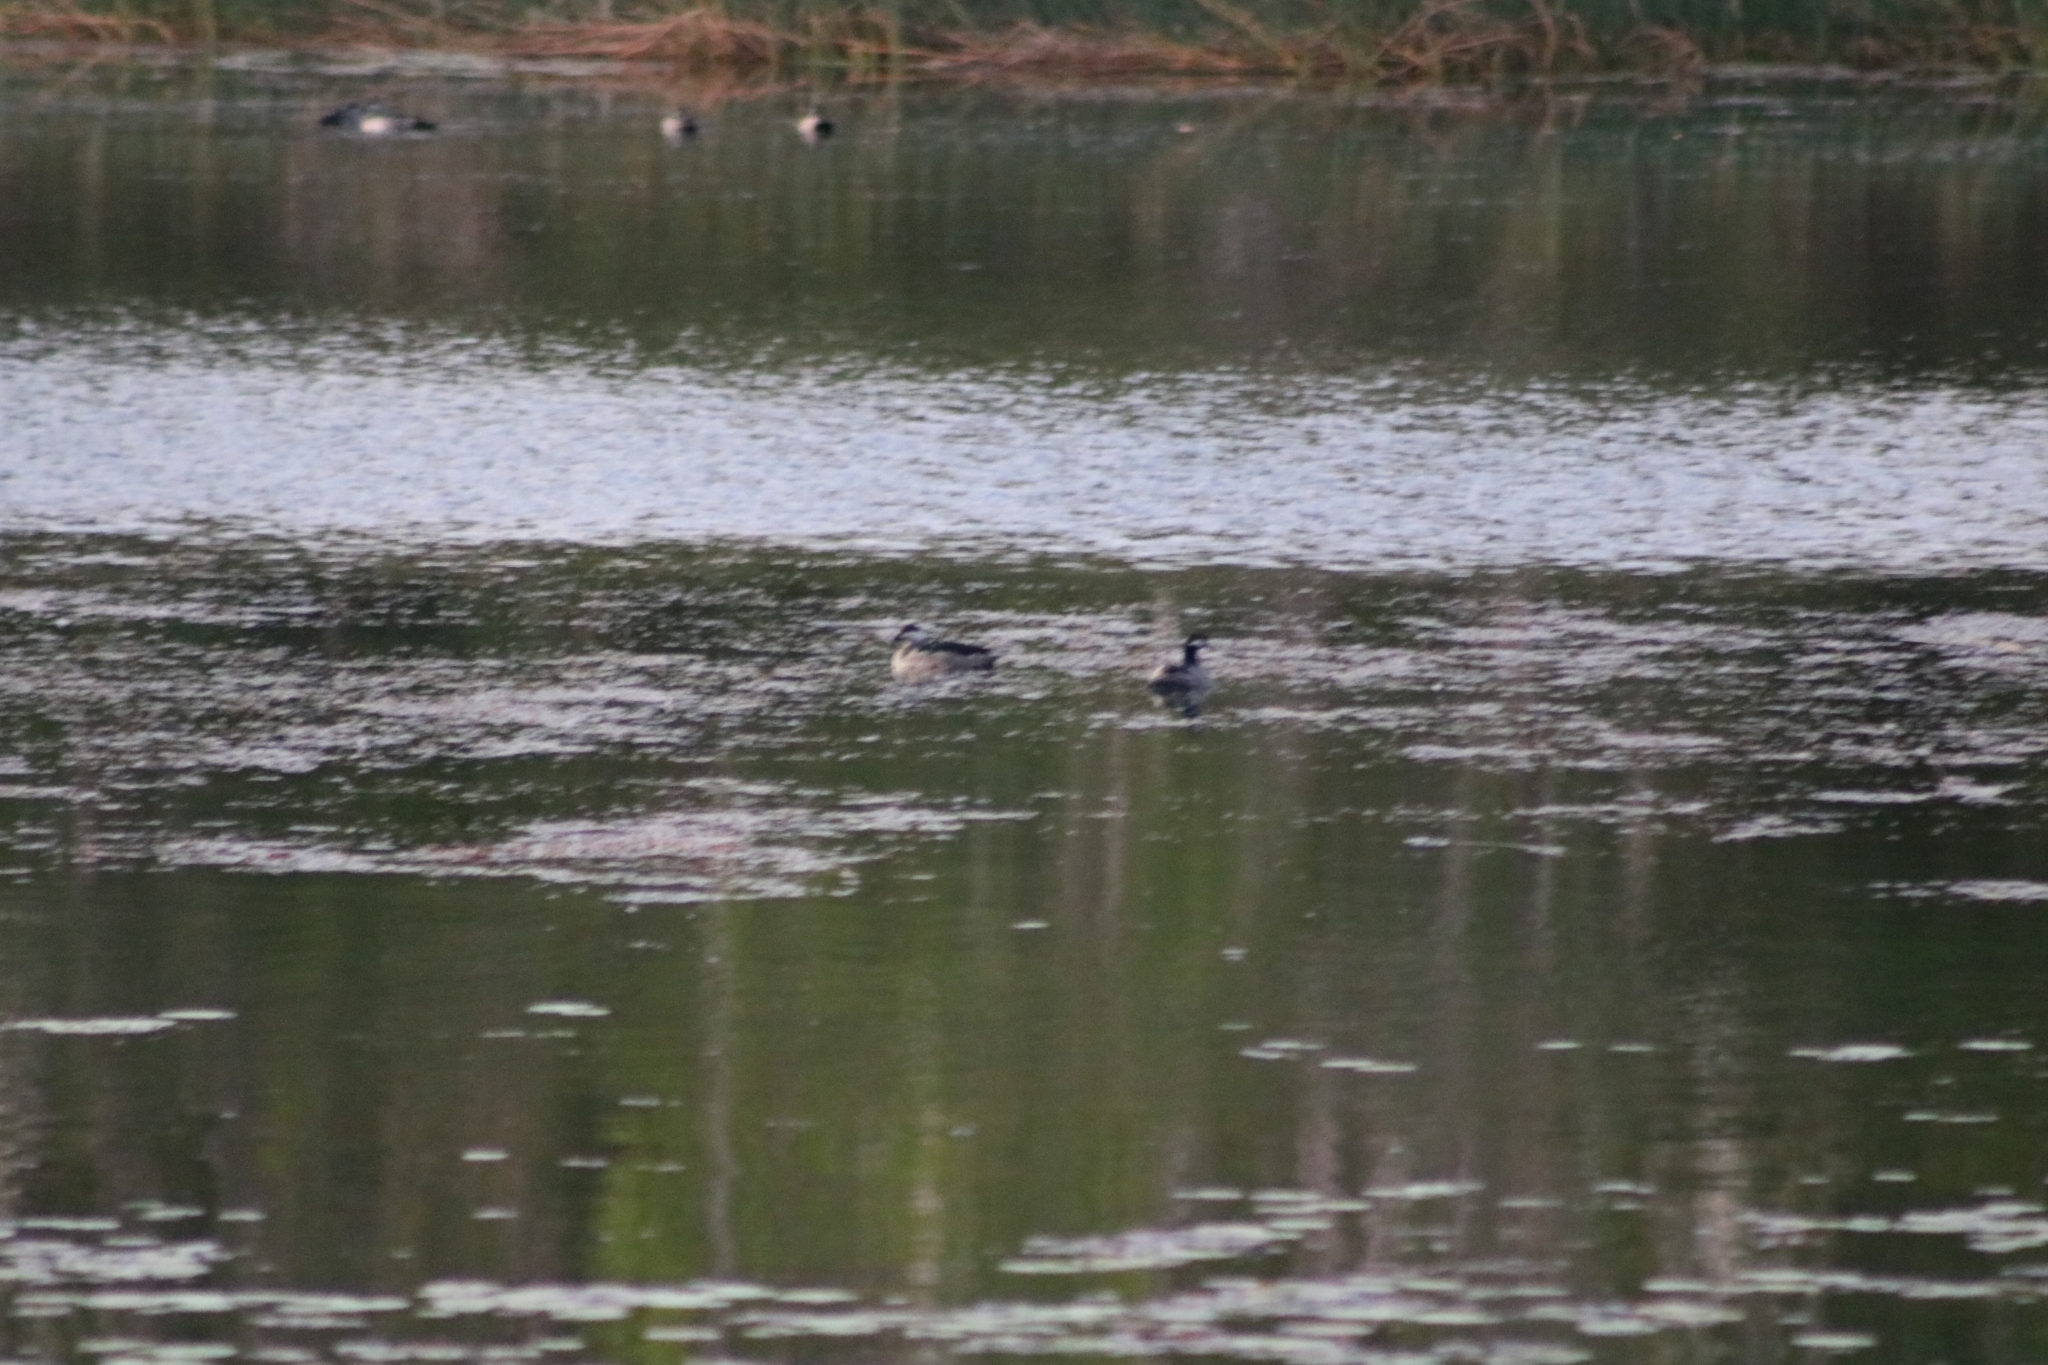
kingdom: Animalia
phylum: Chordata
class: Aves
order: Anseriformes
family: Anatidae
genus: Nettapus
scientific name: Nettapus pulchellus
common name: Green pygmy-goose
